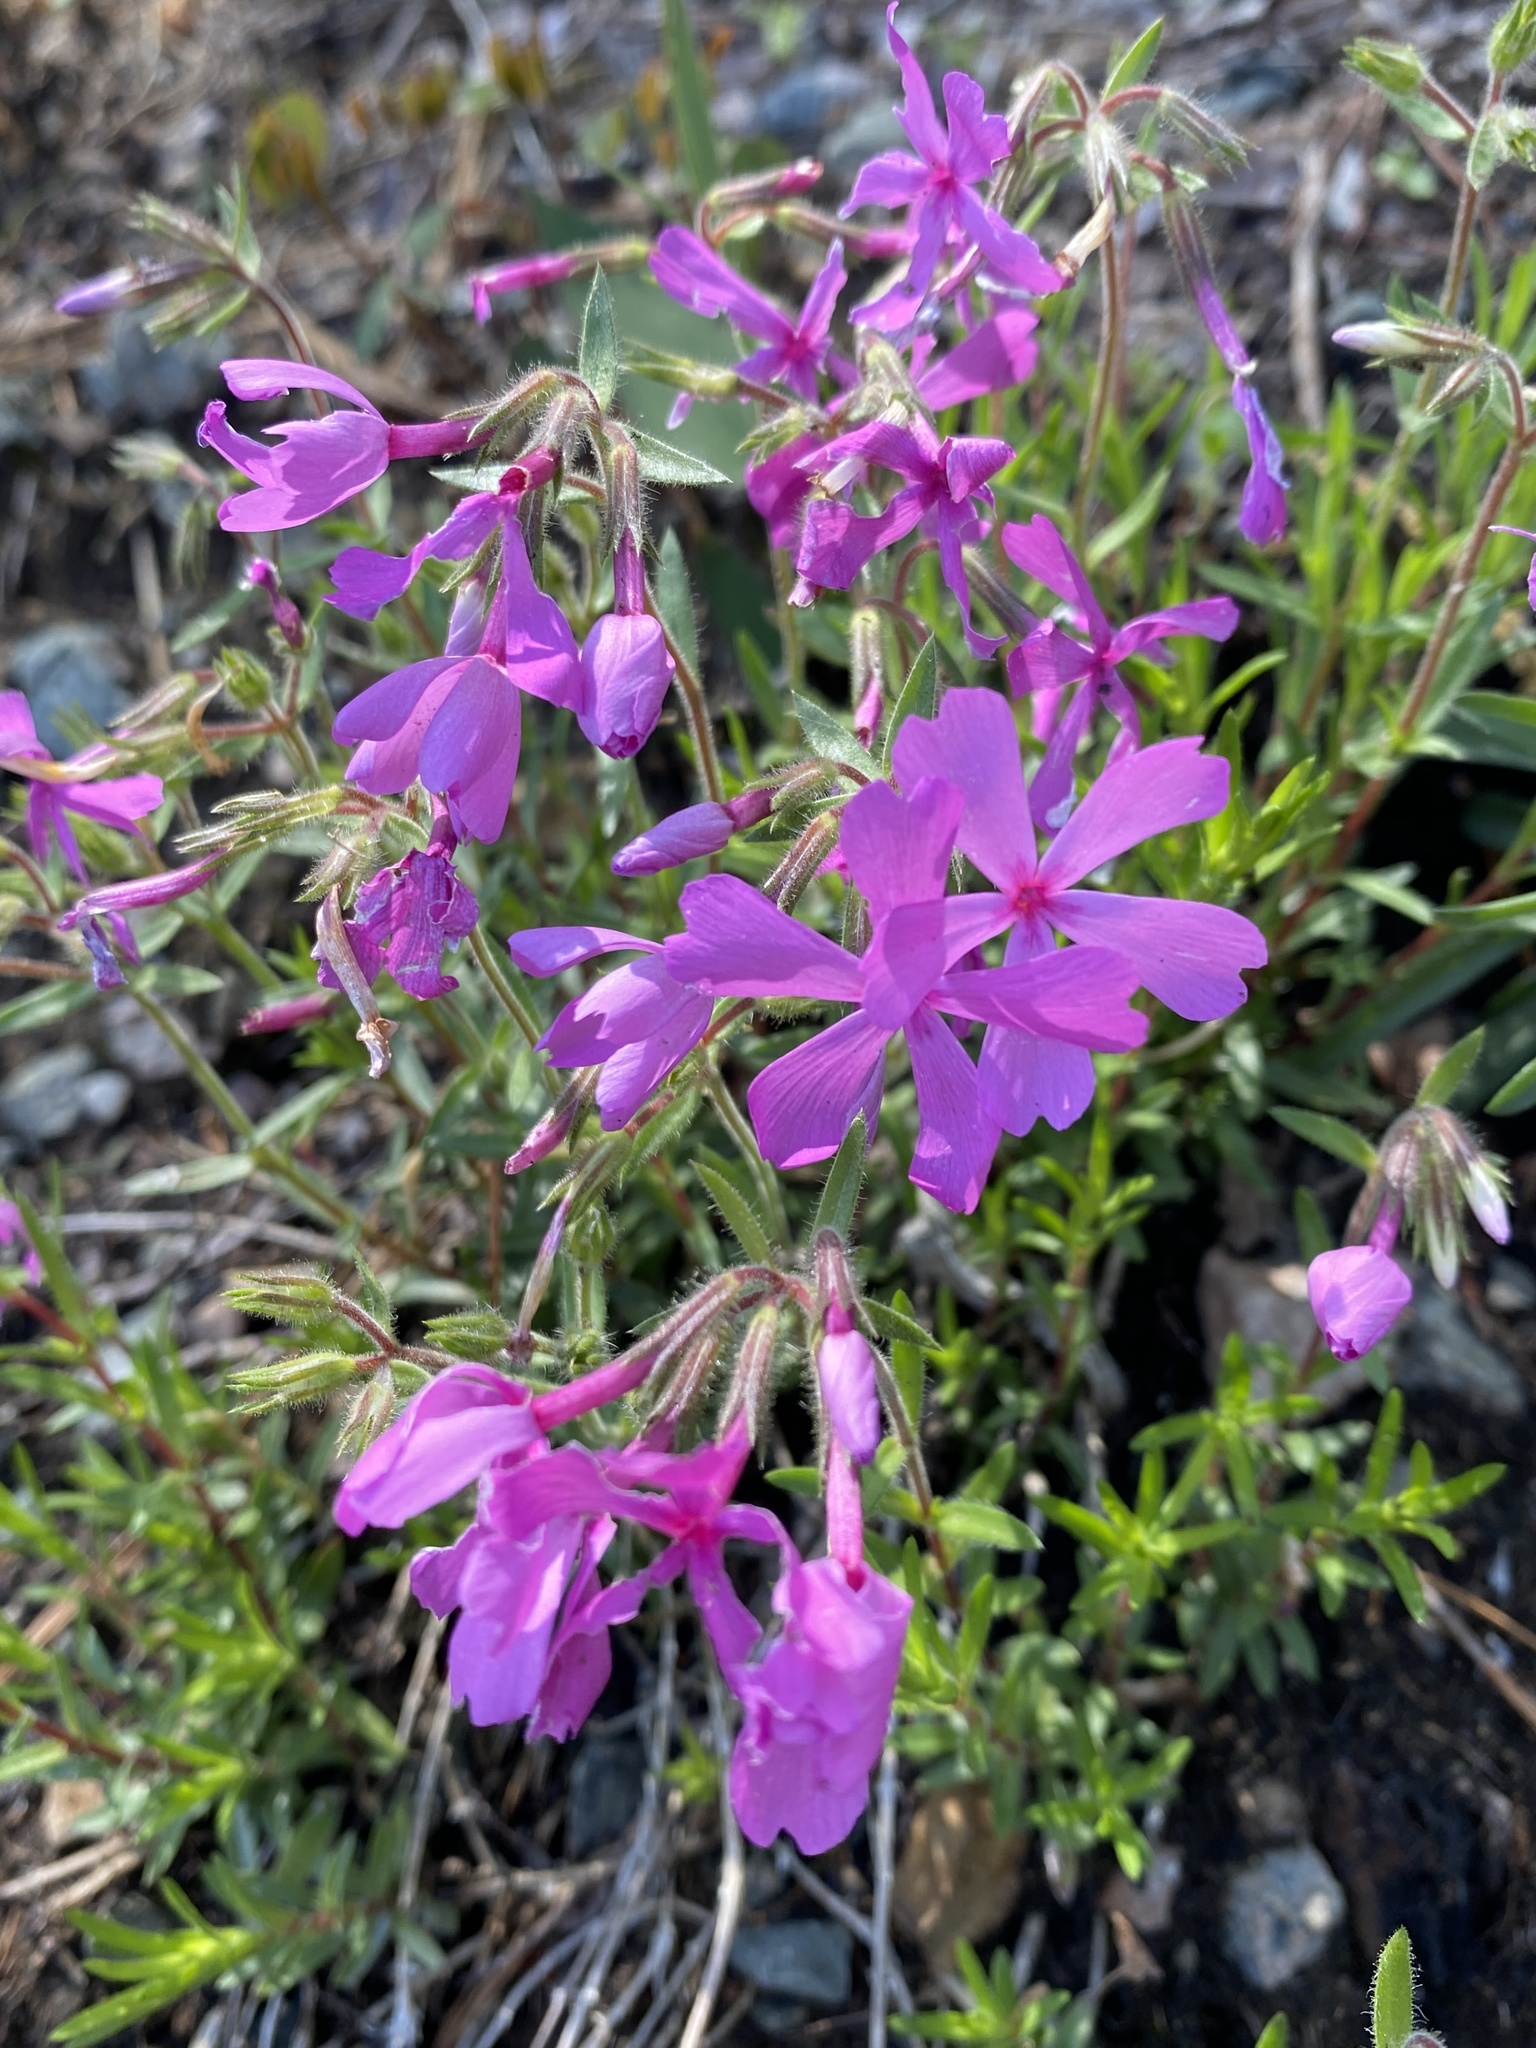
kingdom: Plantae
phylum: Tracheophyta
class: Magnoliopsida
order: Ericales
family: Polemoniaceae
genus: Phlox
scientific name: Phlox nivalis
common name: Trailing phlox
